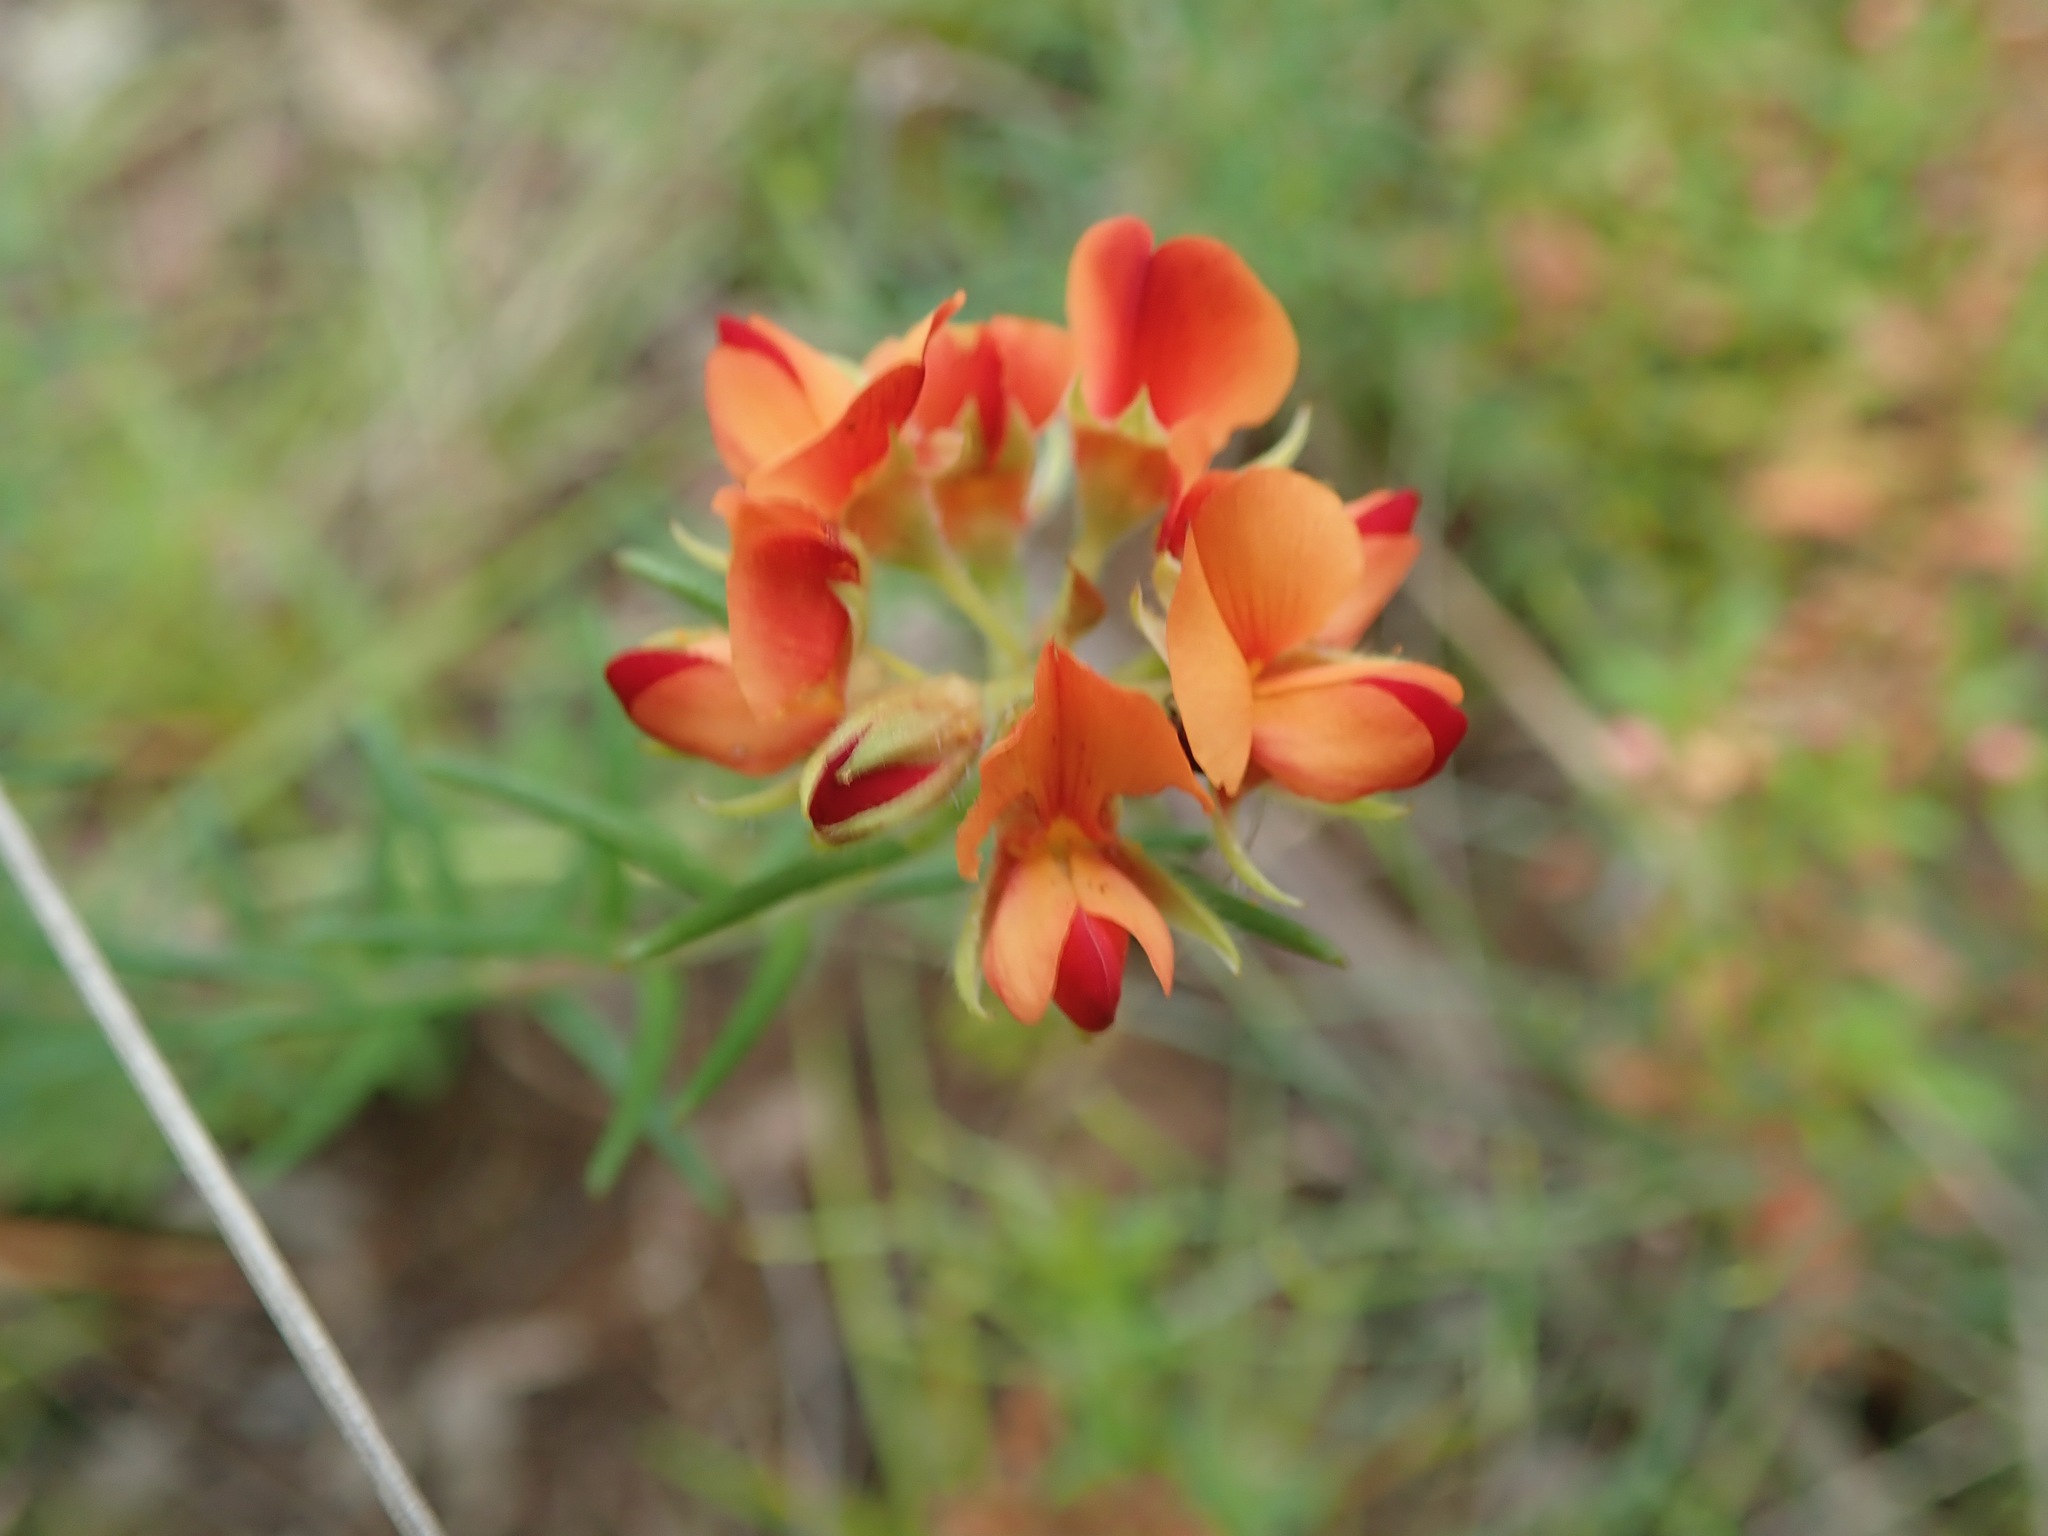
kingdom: Plantae
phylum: Tracheophyta
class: Magnoliopsida
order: Fabales
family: Fabaceae
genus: Oxylobium
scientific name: Oxylobium pulteneae
